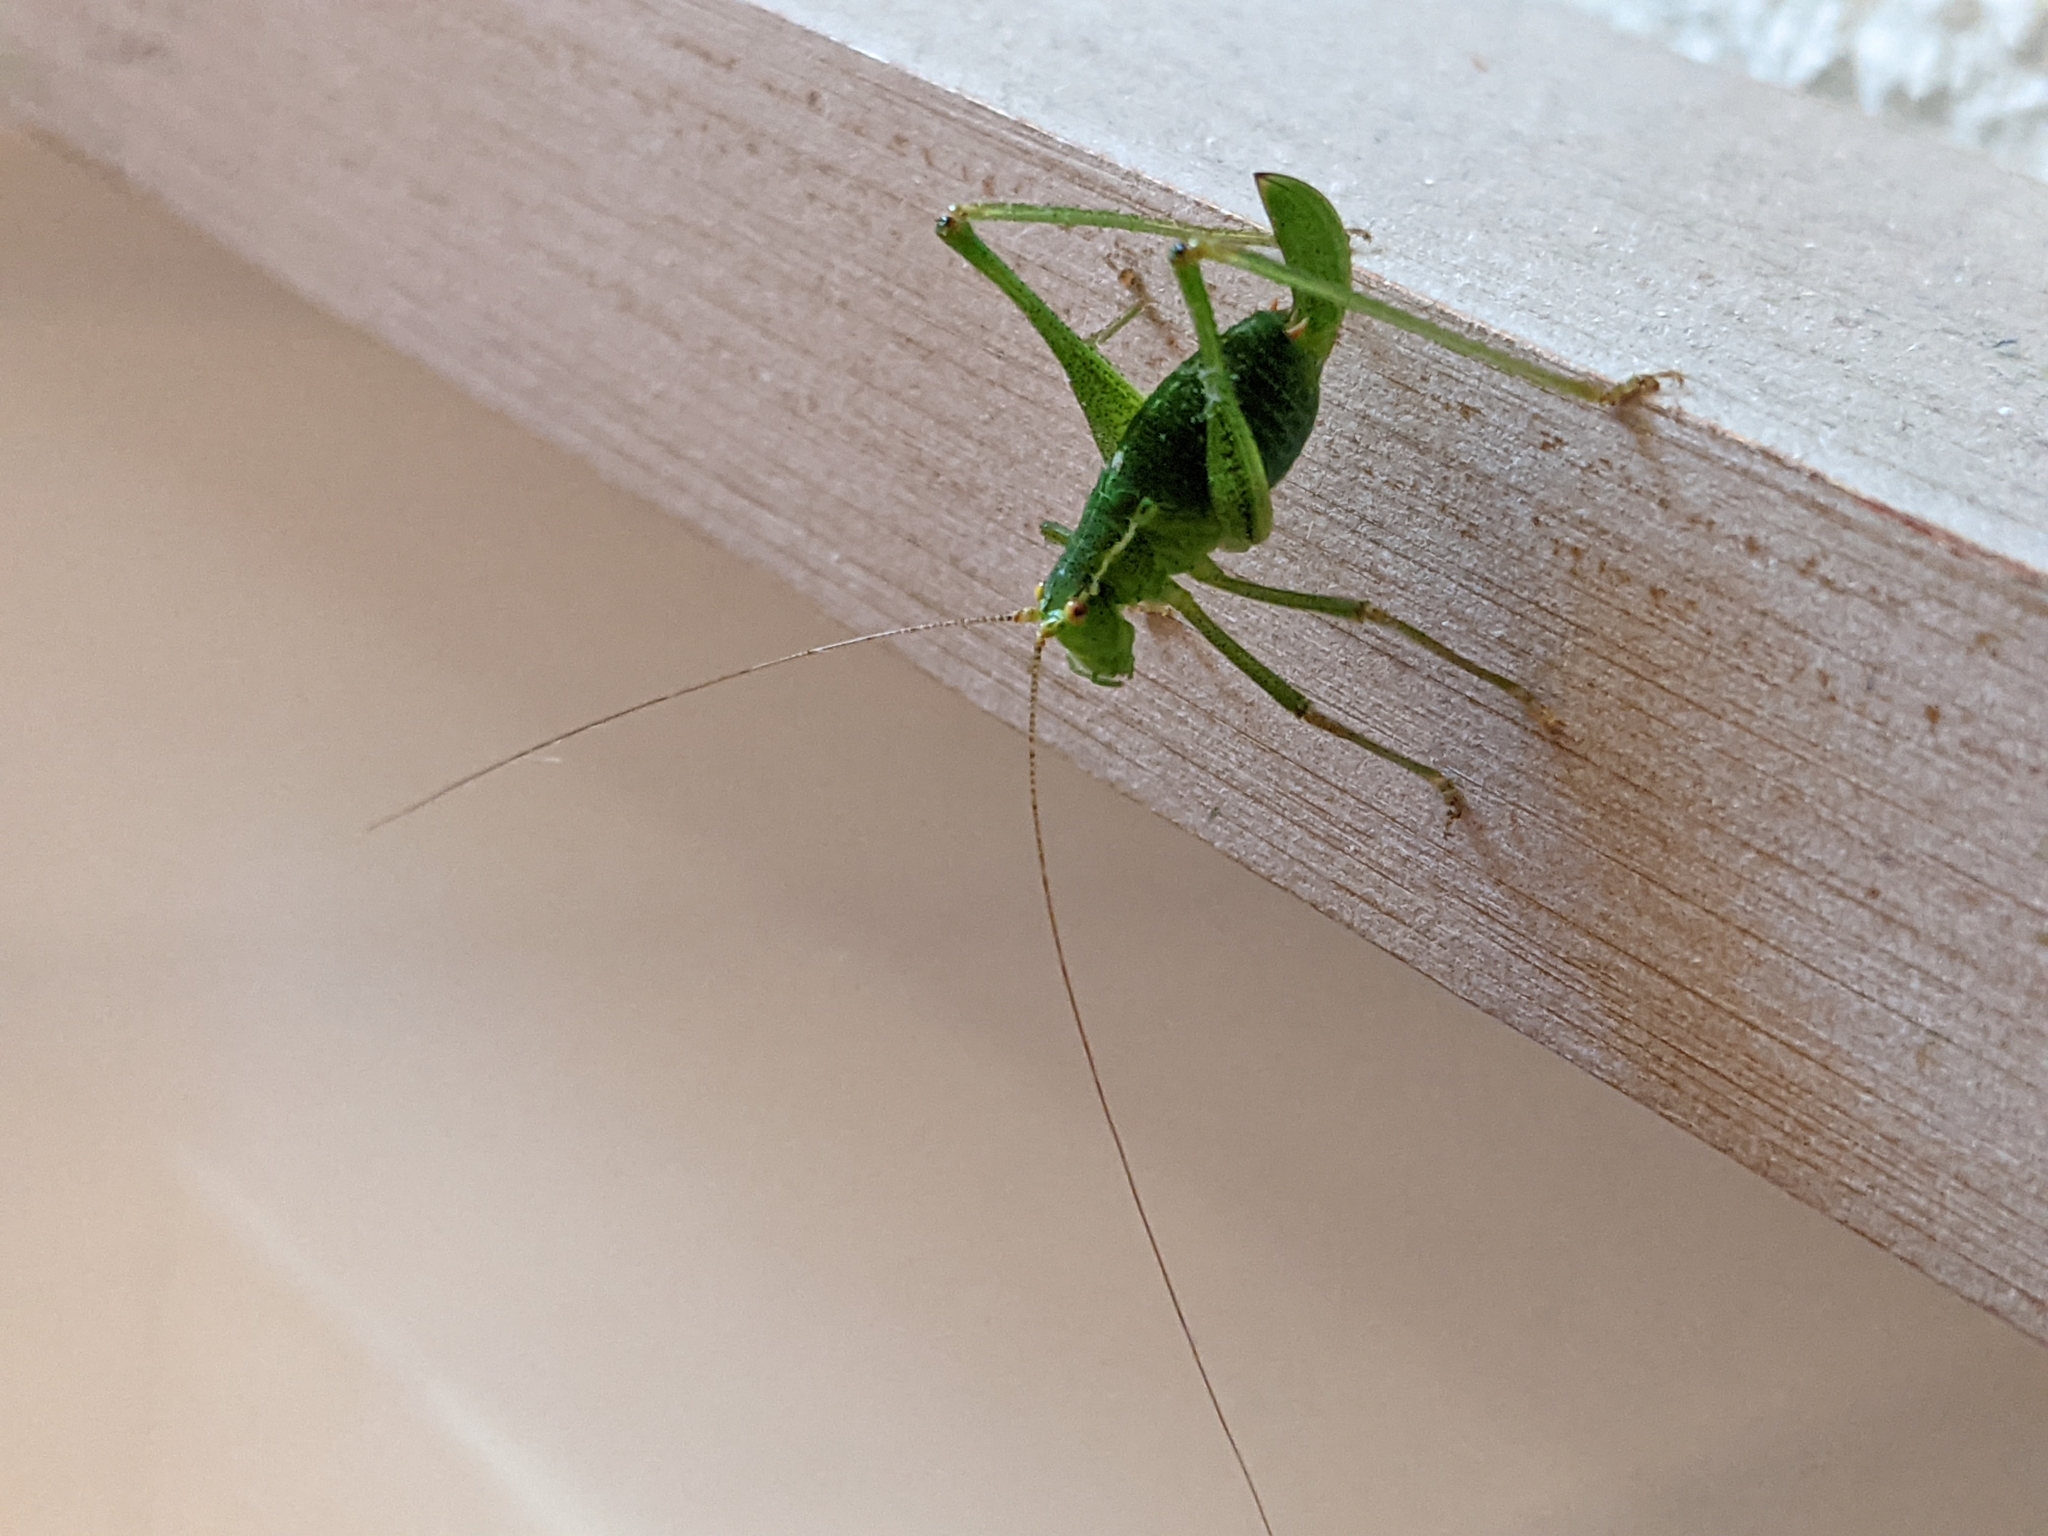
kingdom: Animalia
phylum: Arthropoda
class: Insecta
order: Orthoptera
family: Tettigoniidae
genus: Leptophyes
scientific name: Leptophyes punctatissima
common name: Speckled bush-cricket
